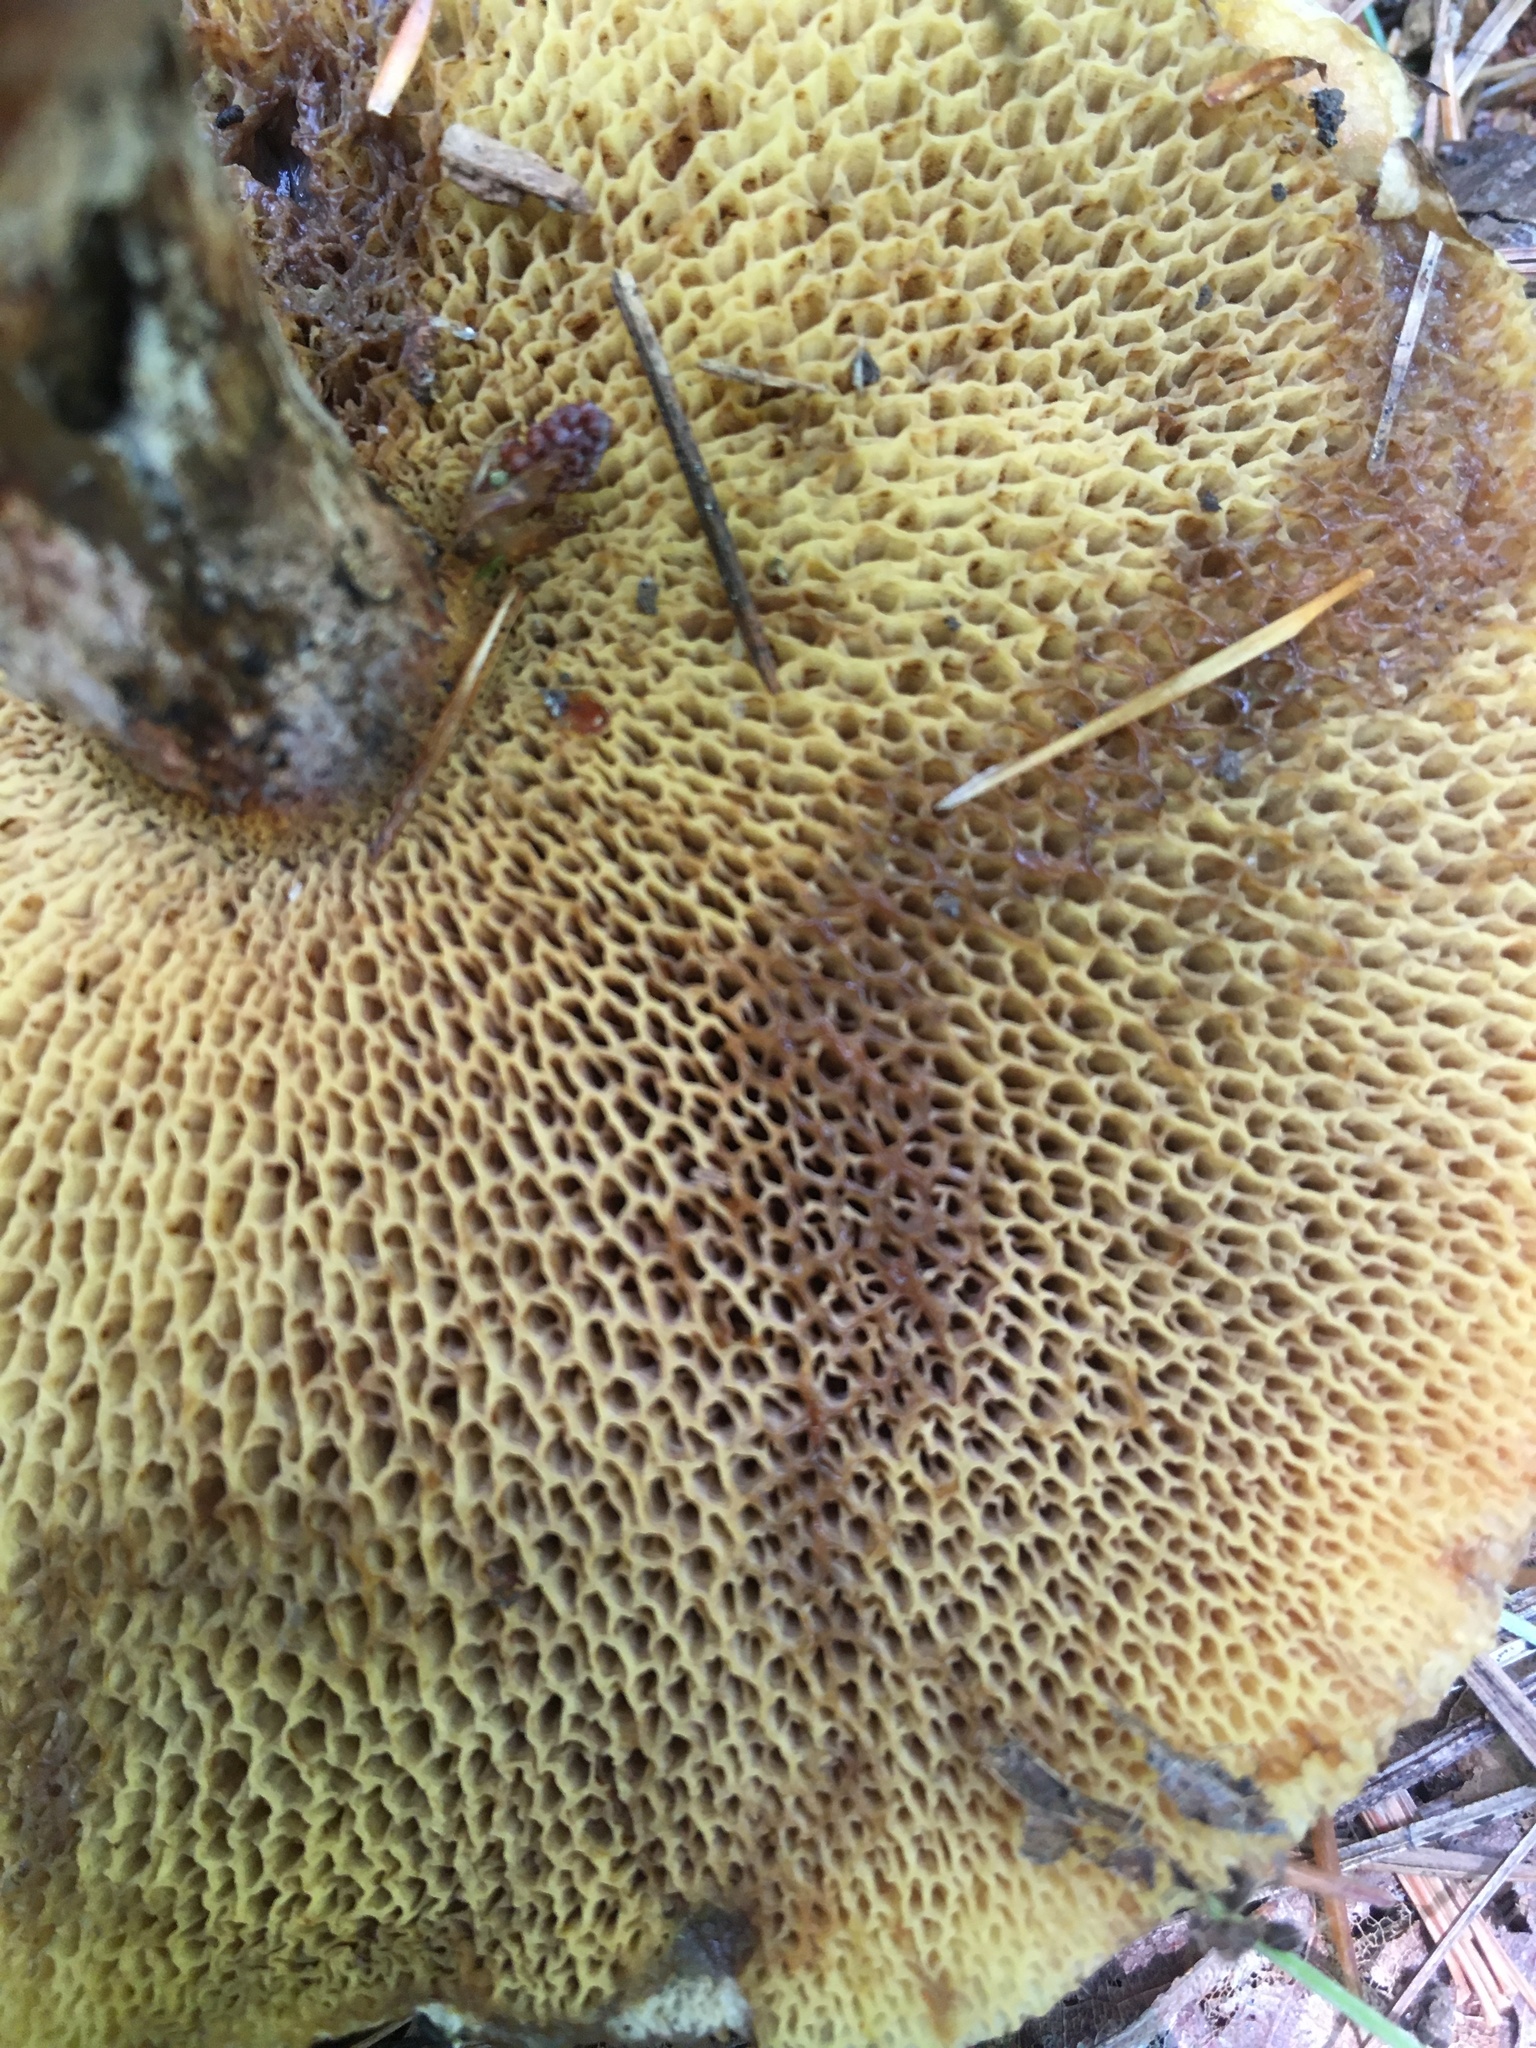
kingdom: Fungi
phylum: Basidiomycota
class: Agaricomycetes
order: Boletales
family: Suillaceae
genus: Suillus
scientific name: Suillus spraguei
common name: Painted suillus
